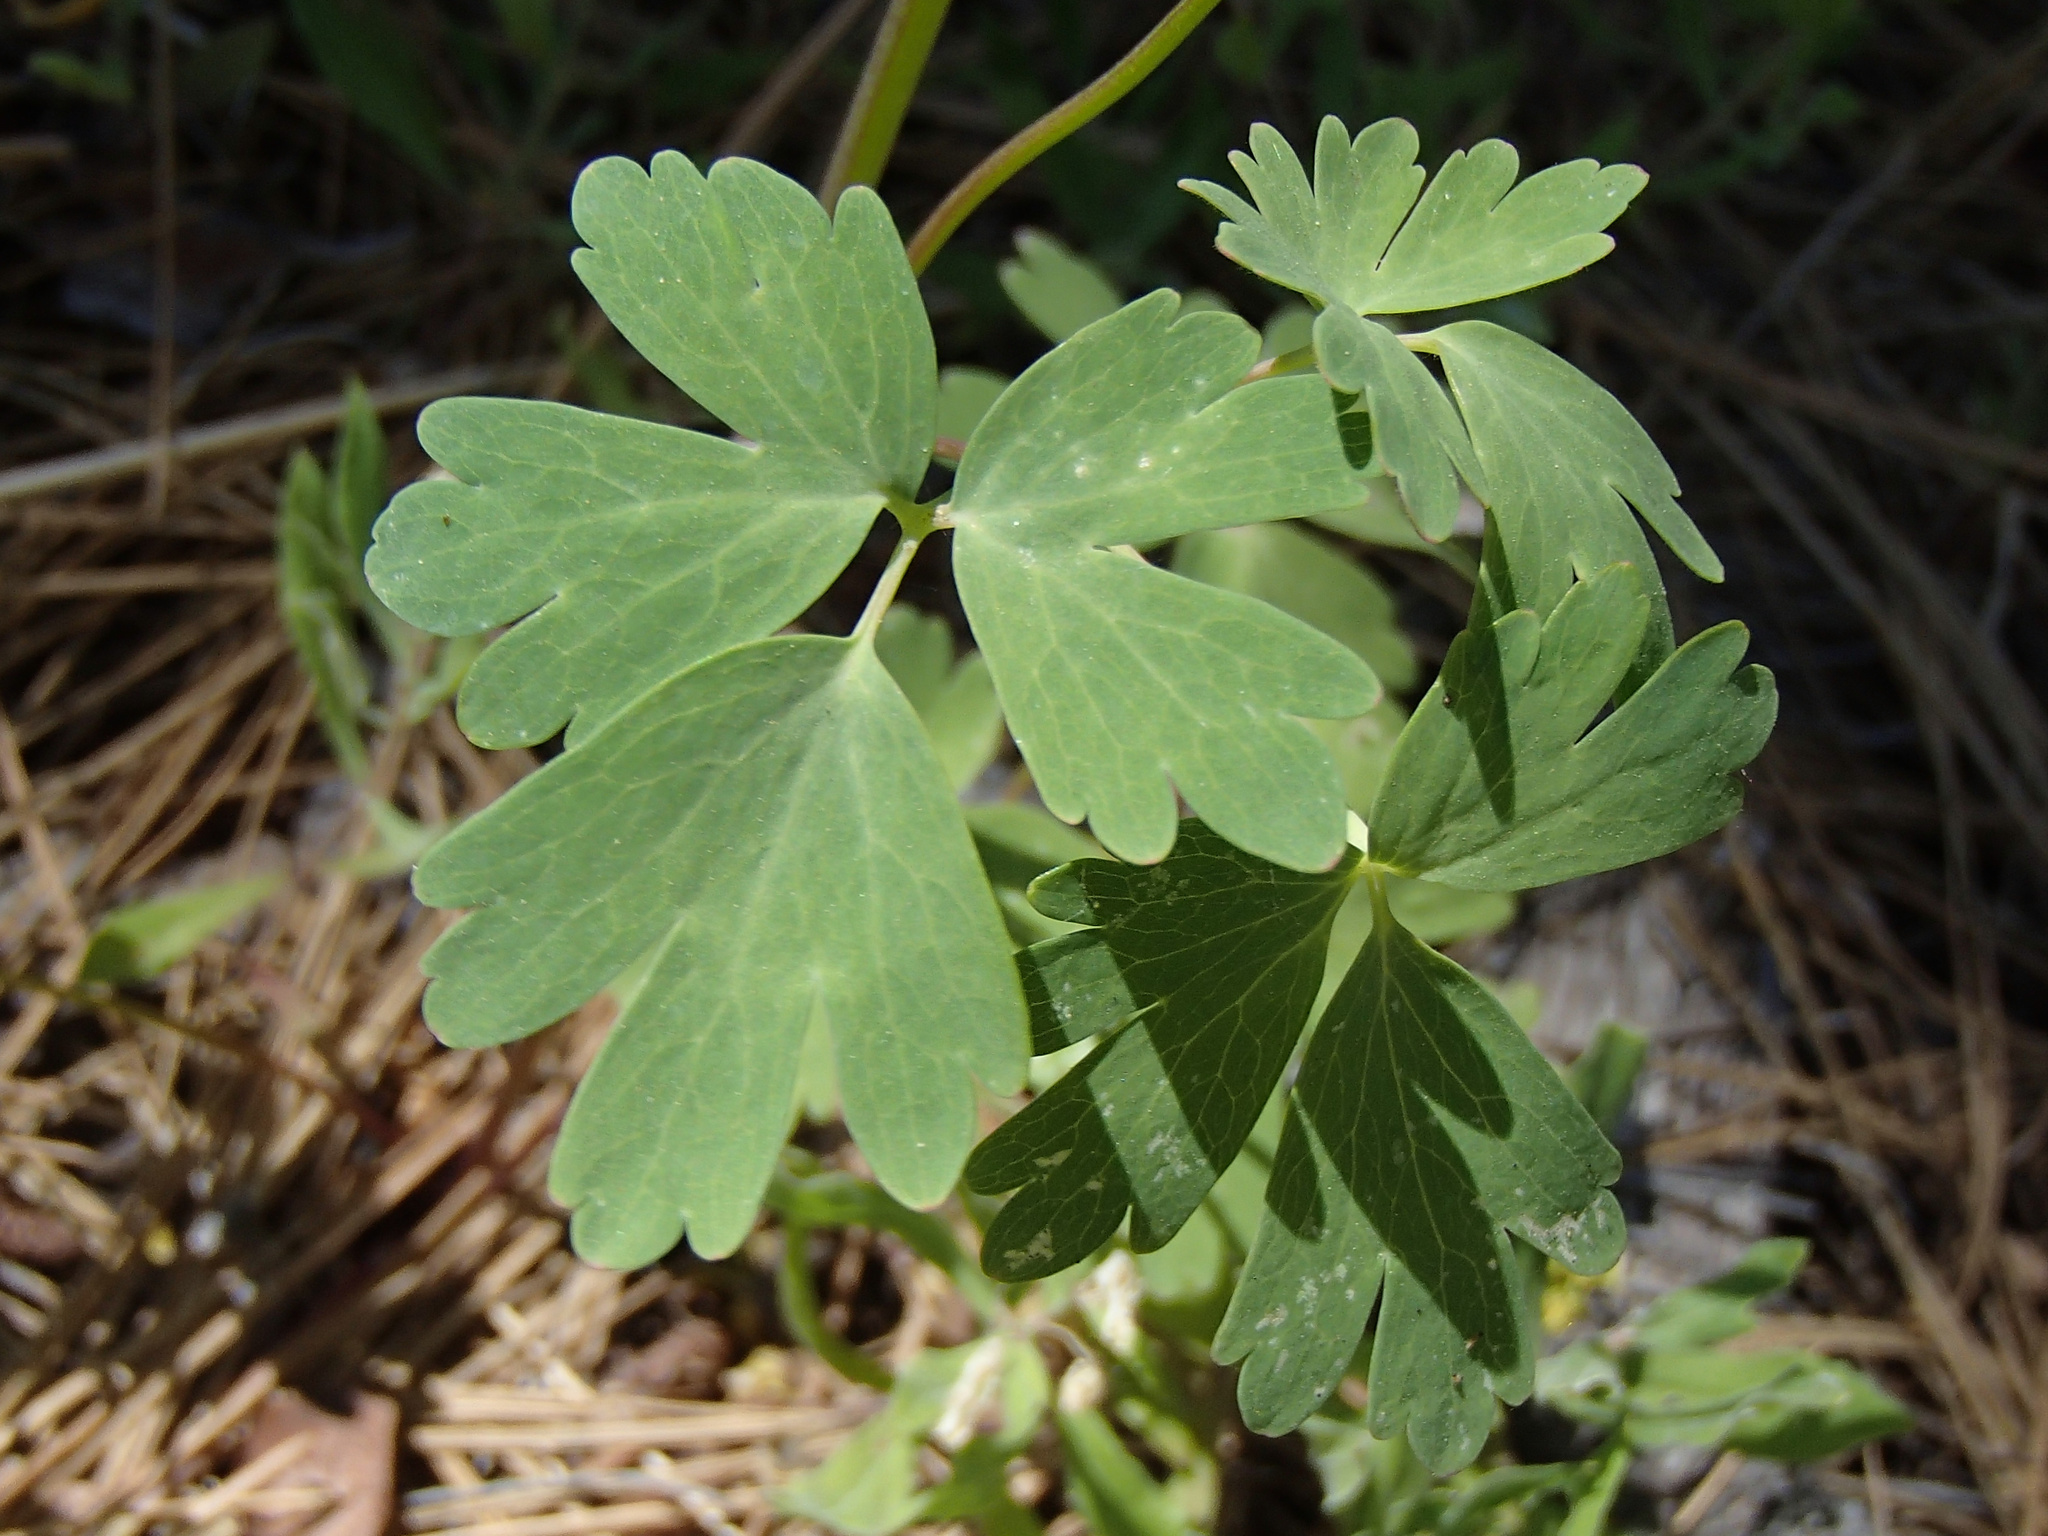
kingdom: Plantae
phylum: Tracheophyta
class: Magnoliopsida
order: Ranunculales
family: Ranunculaceae
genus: Aquilegia
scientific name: Aquilegia formosa
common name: Sitka columbine
